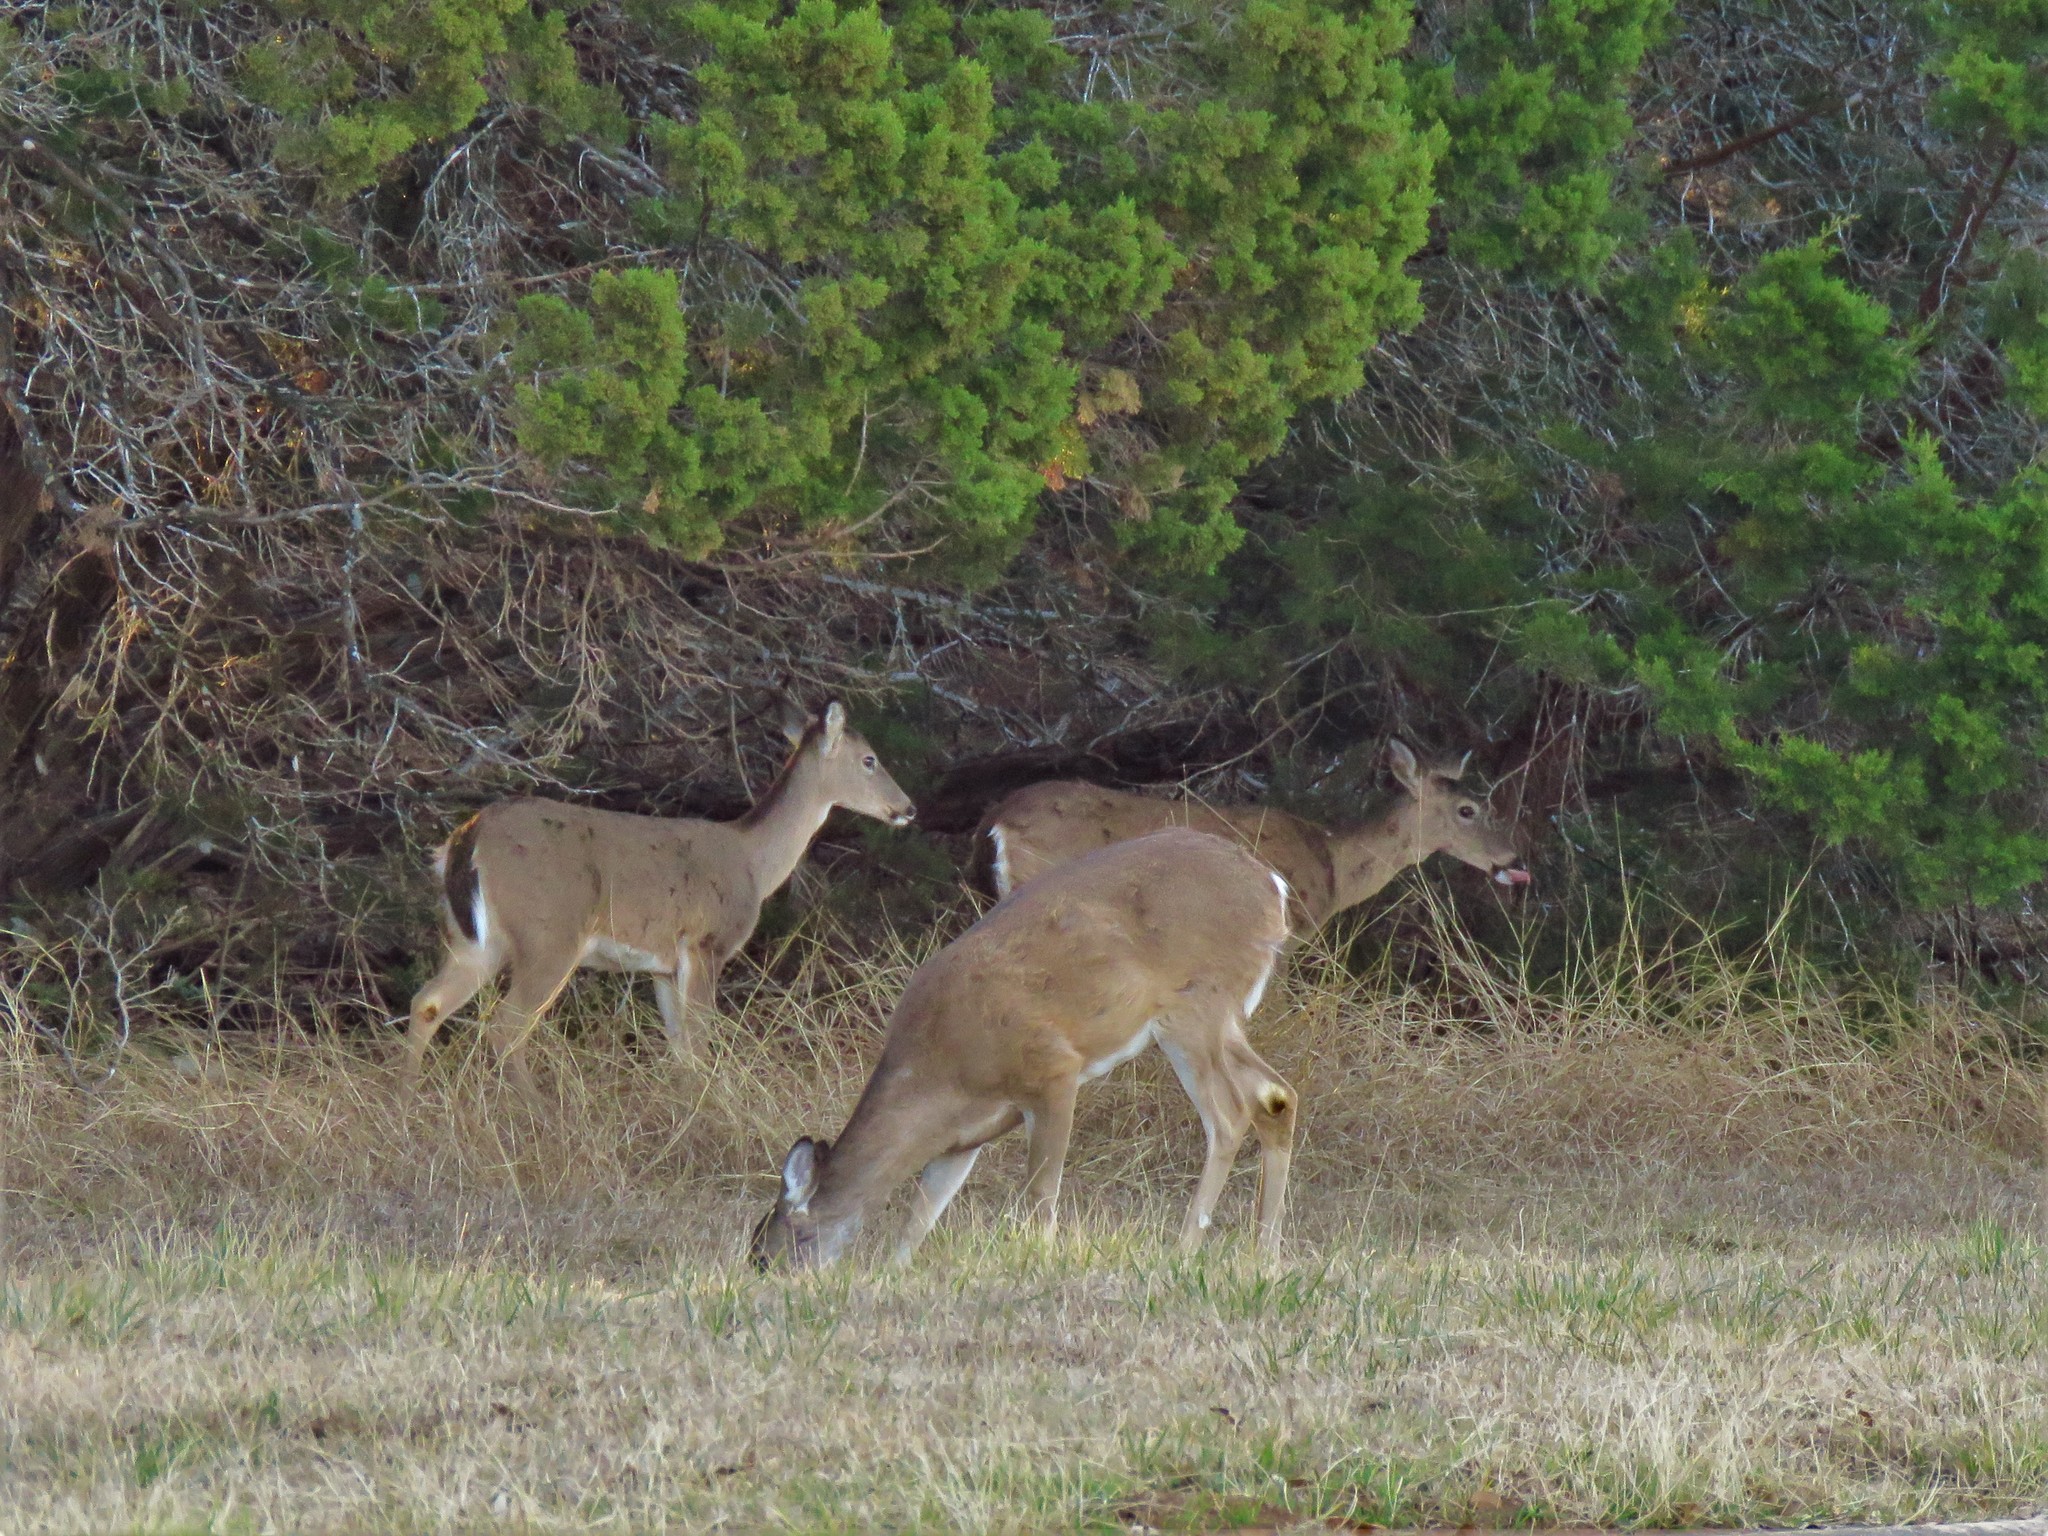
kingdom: Animalia
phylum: Chordata
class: Mammalia
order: Artiodactyla
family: Cervidae
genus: Odocoileus
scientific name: Odocoileus virginianus
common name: White-tailed deer
